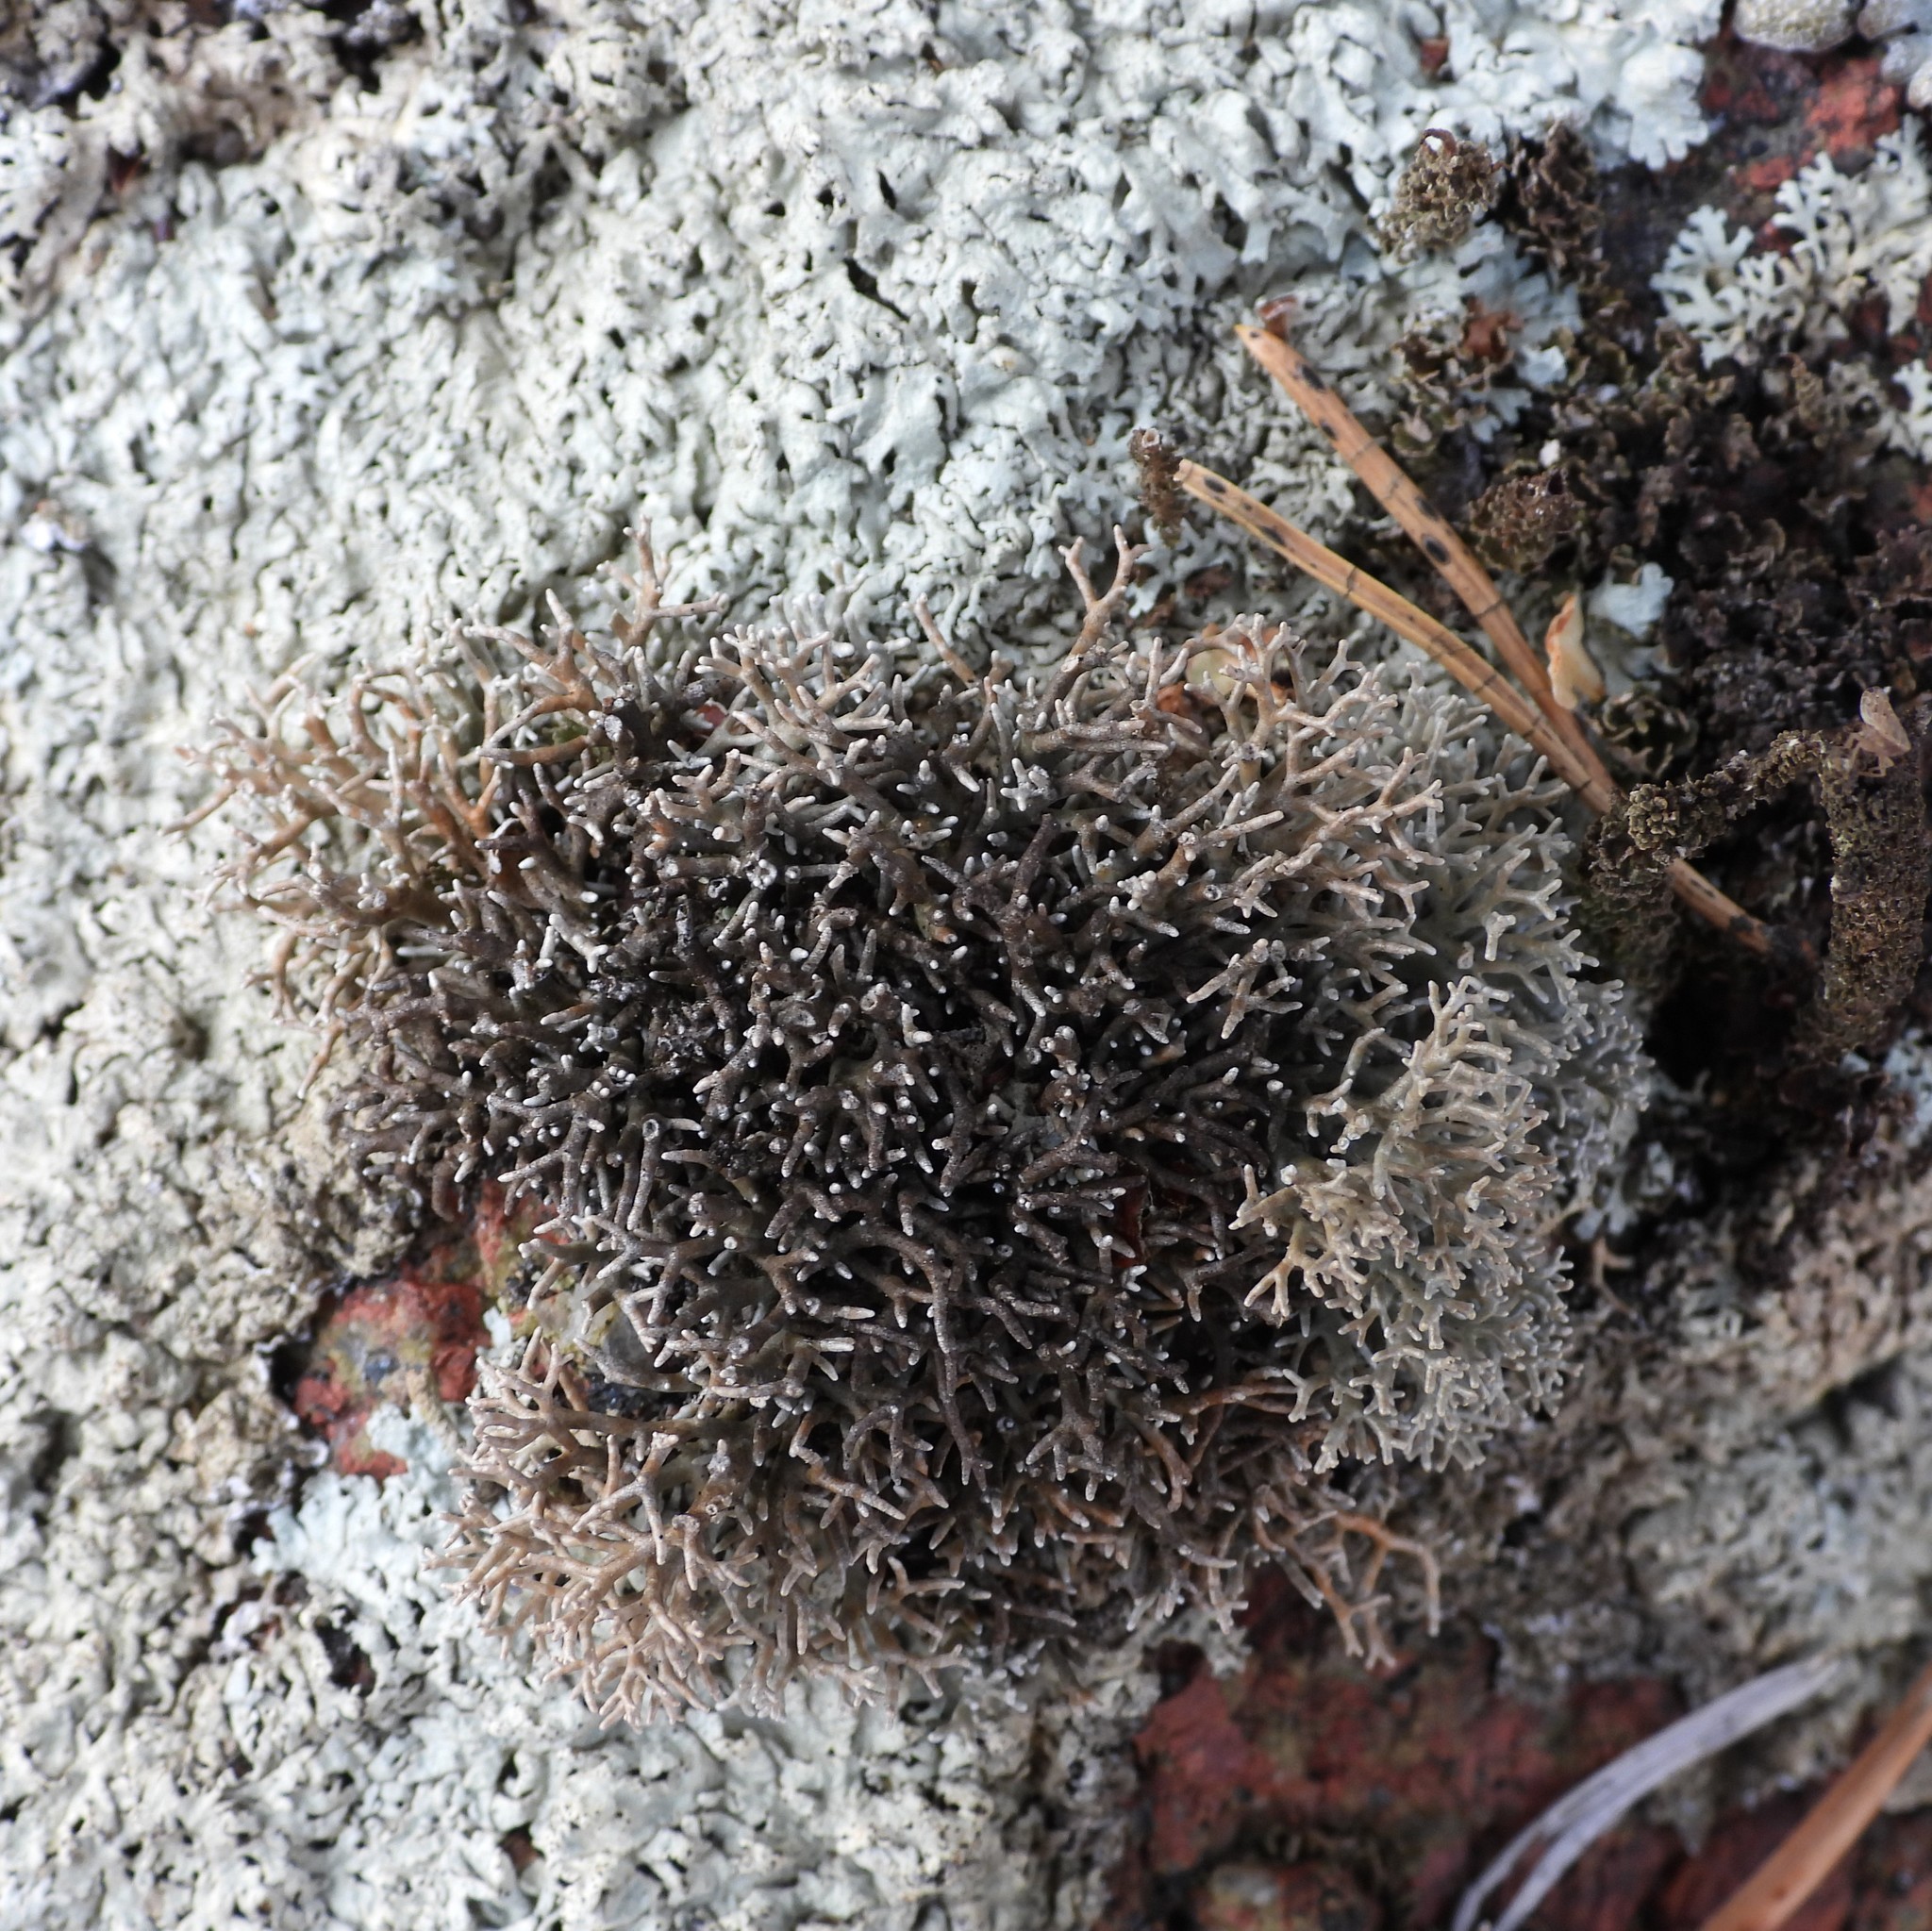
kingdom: Fungi
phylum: Ascomycota
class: Lecanoromycetes
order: Lecanorales
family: Sphaerophoraceae
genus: Sphaerophorus
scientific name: Sphaerophorus fragilis
